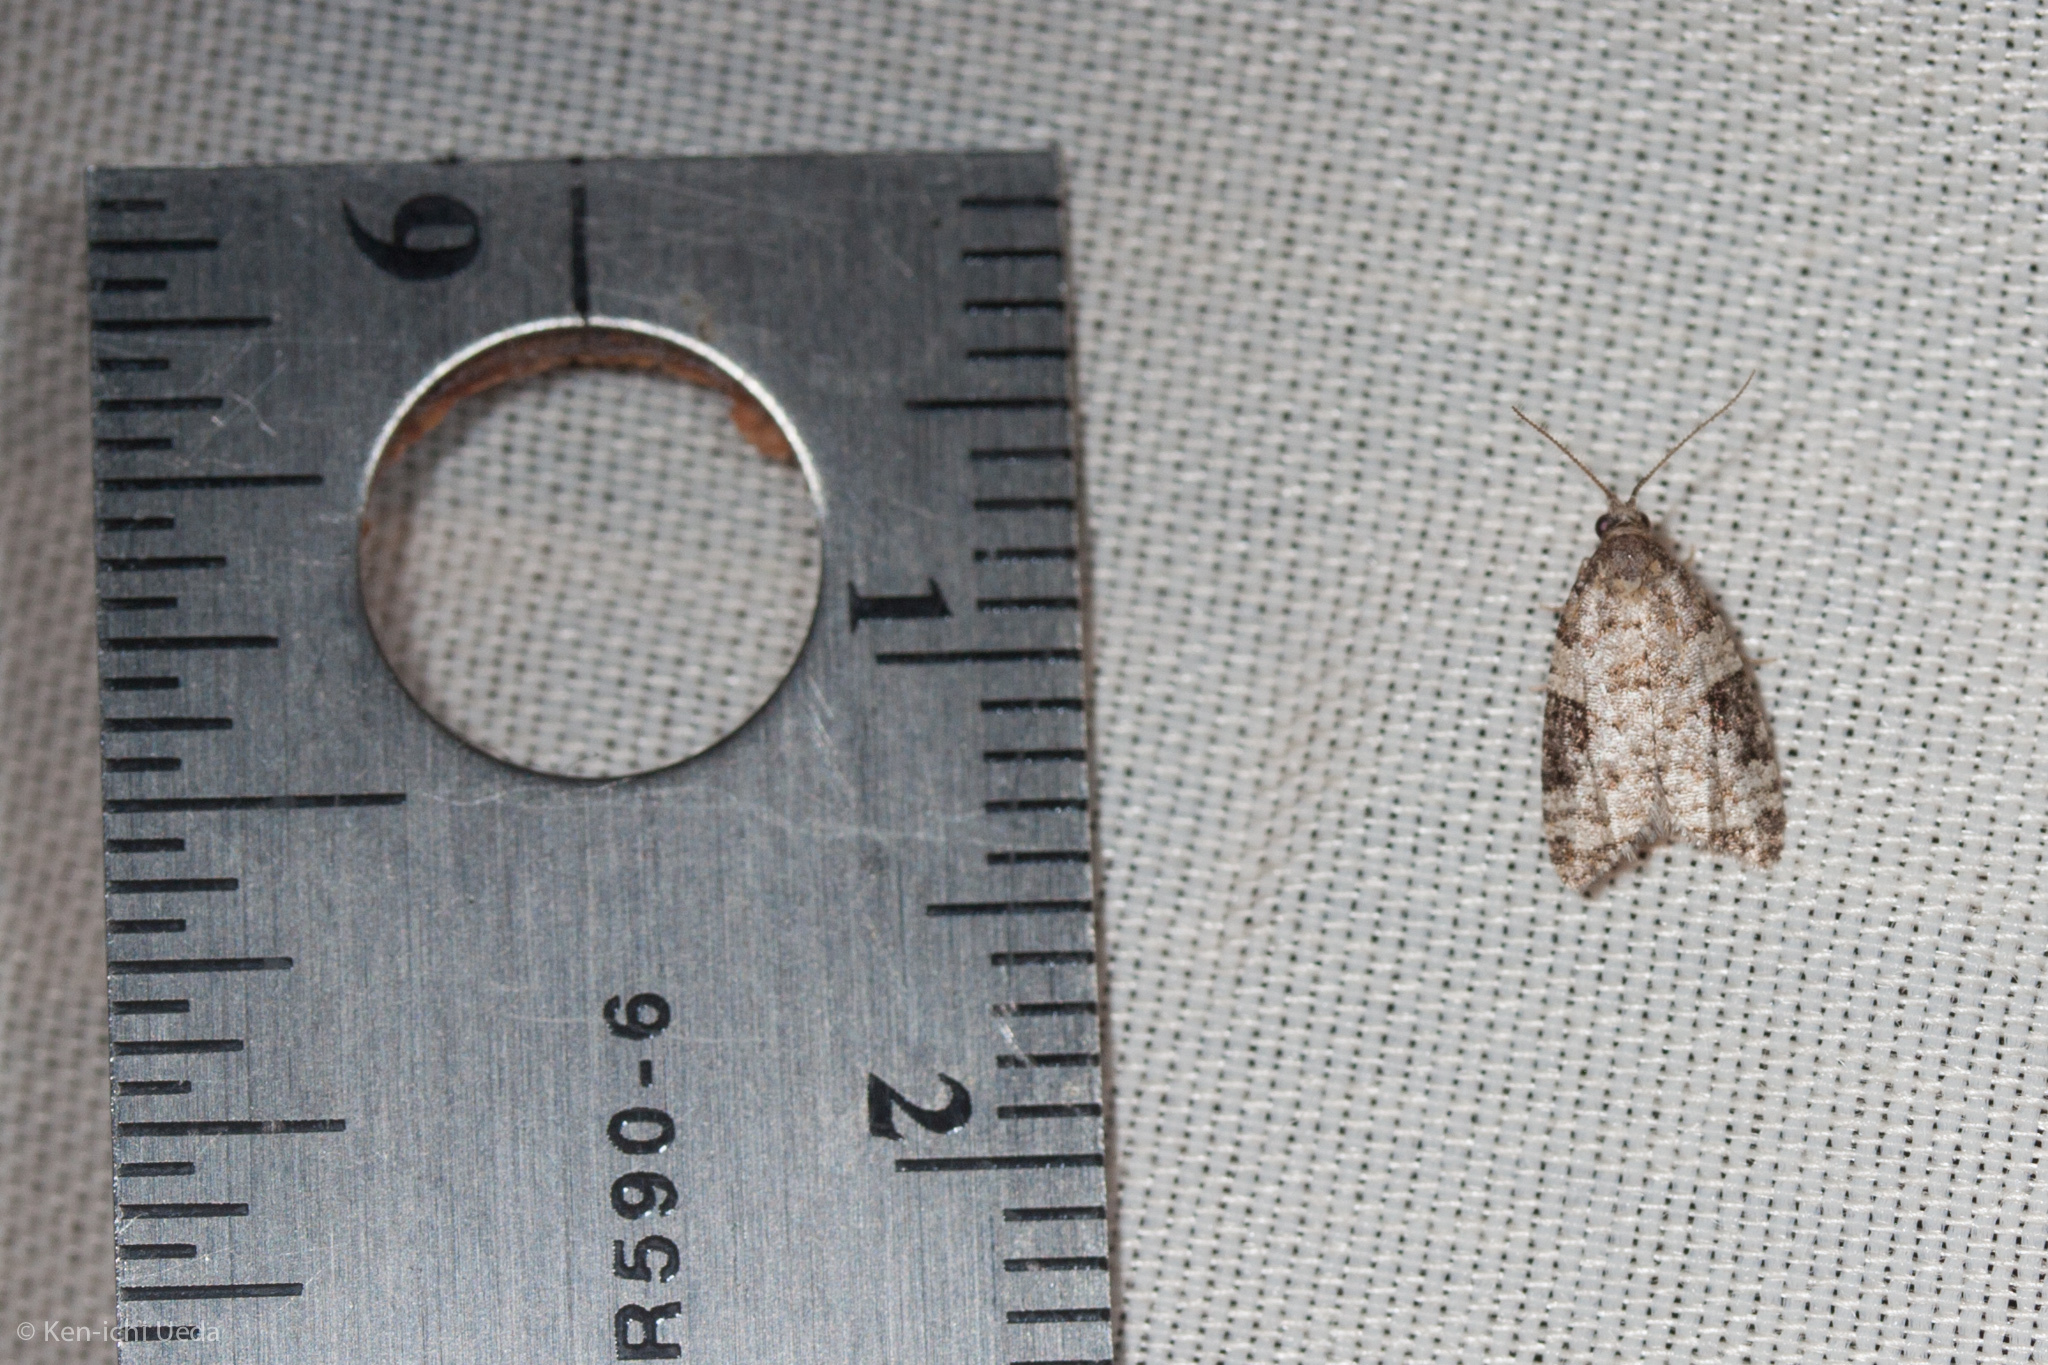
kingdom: Animalia
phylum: Arthropoda
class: Insecta
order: Lepidoptera
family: Tortricidae
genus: Anopina
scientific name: Anopina triangulana
